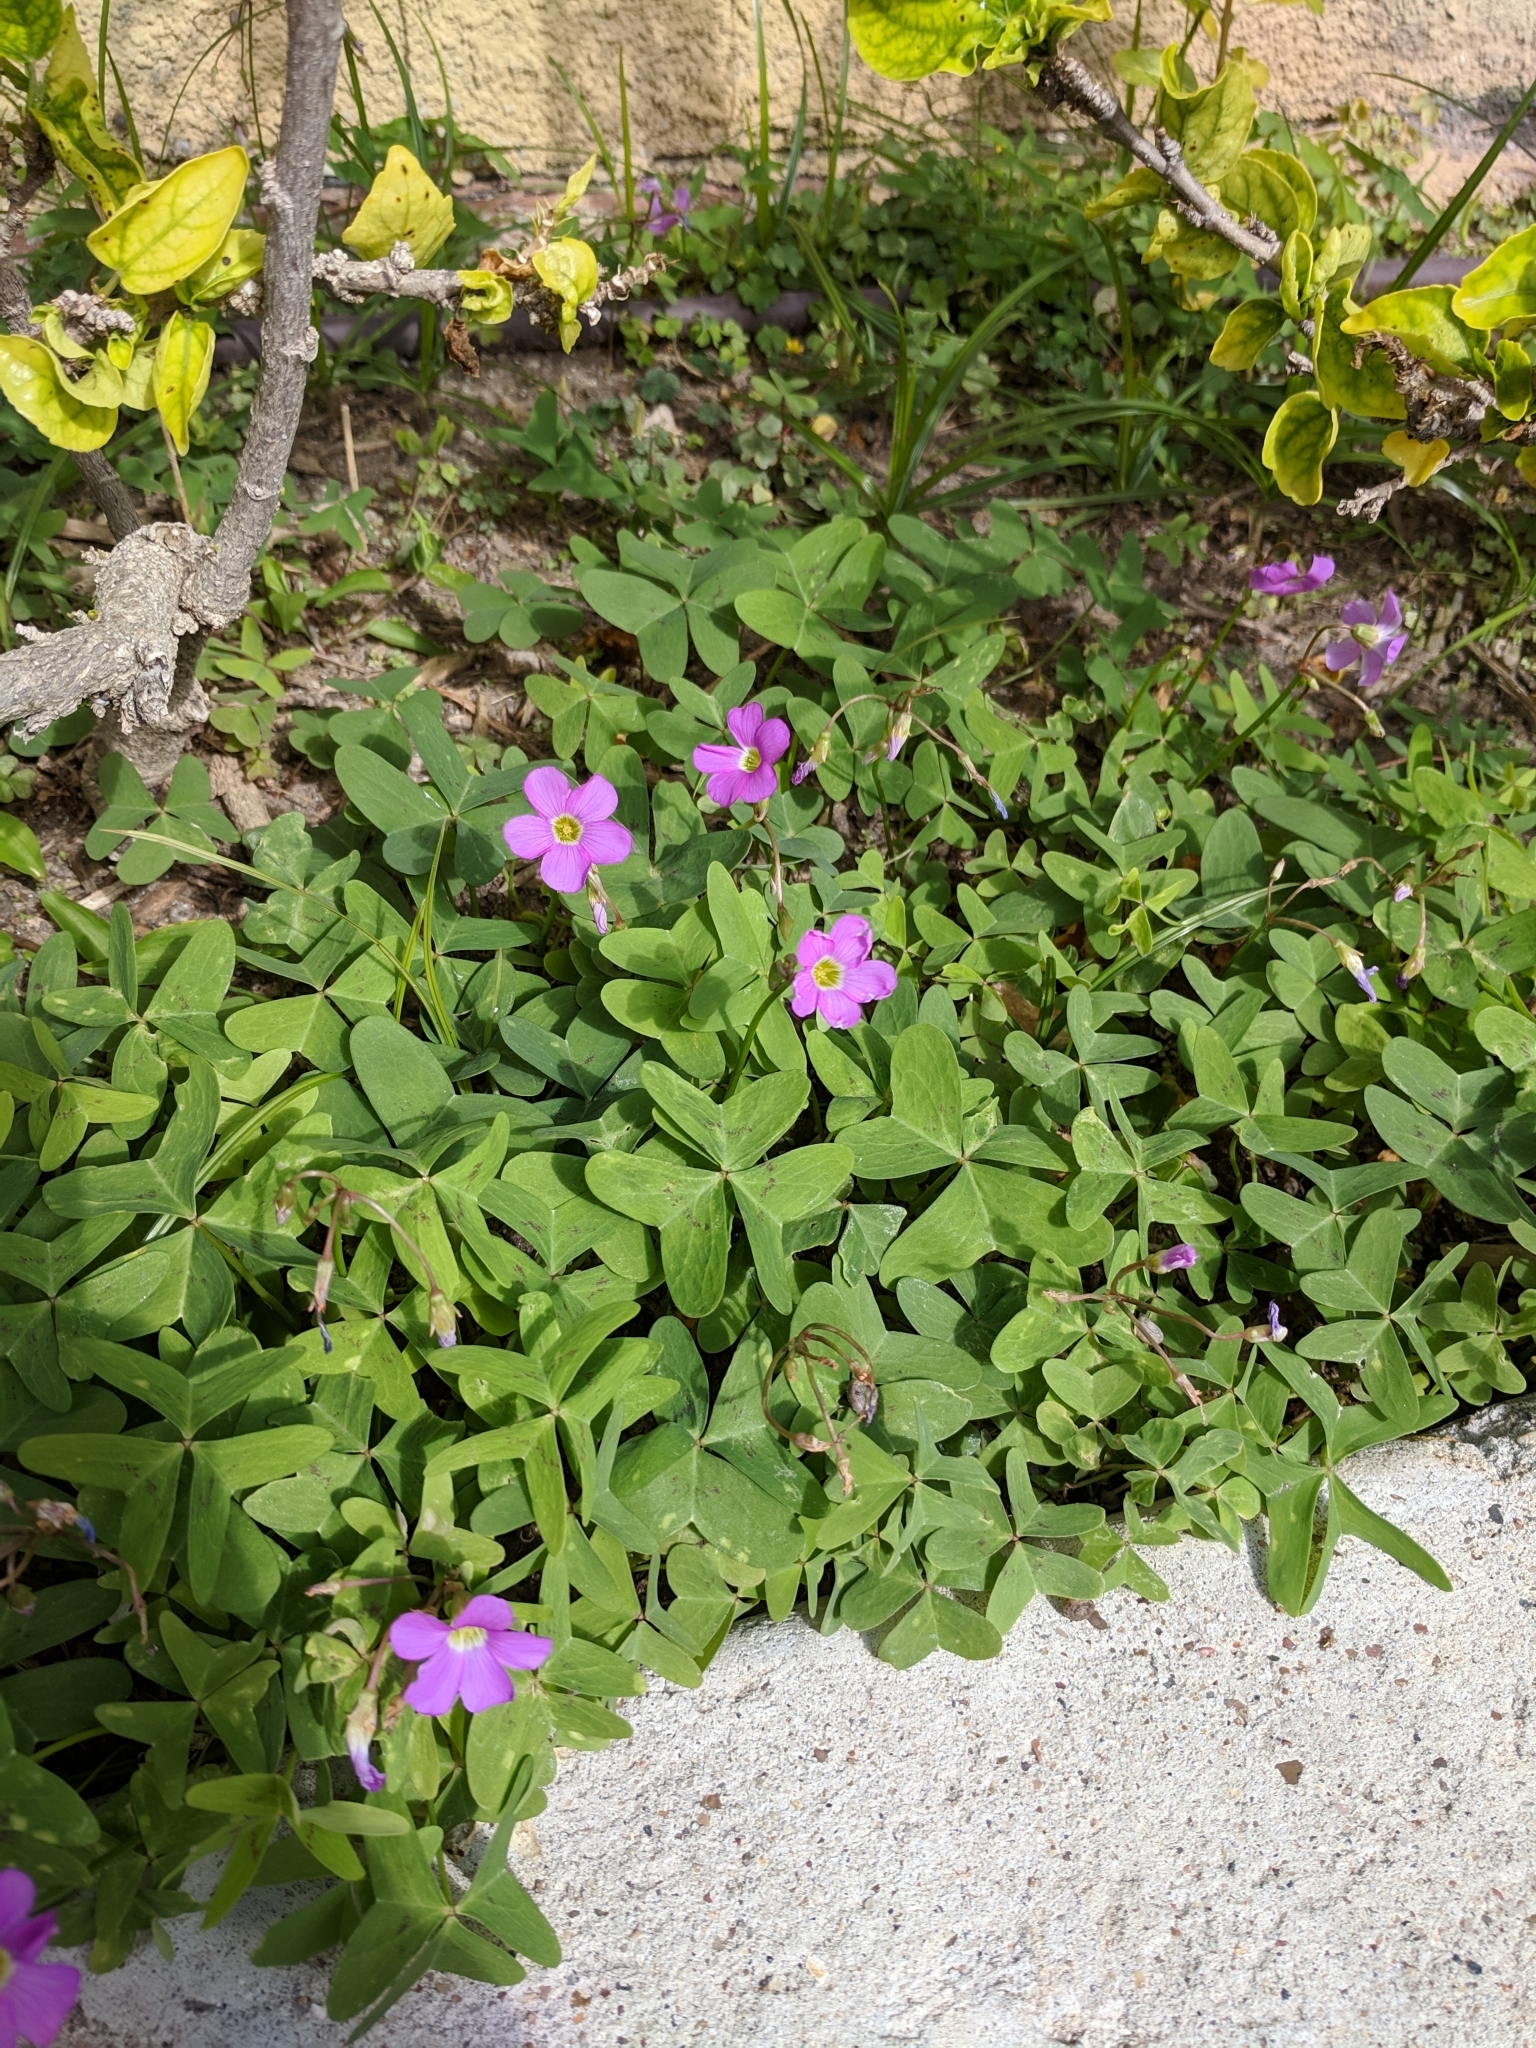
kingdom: Plantae
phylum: Tracheophyta
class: Magnoliopsida
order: Oxalidales
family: Oxalidaceae
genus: Oxalis
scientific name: Oxalis drummondii
